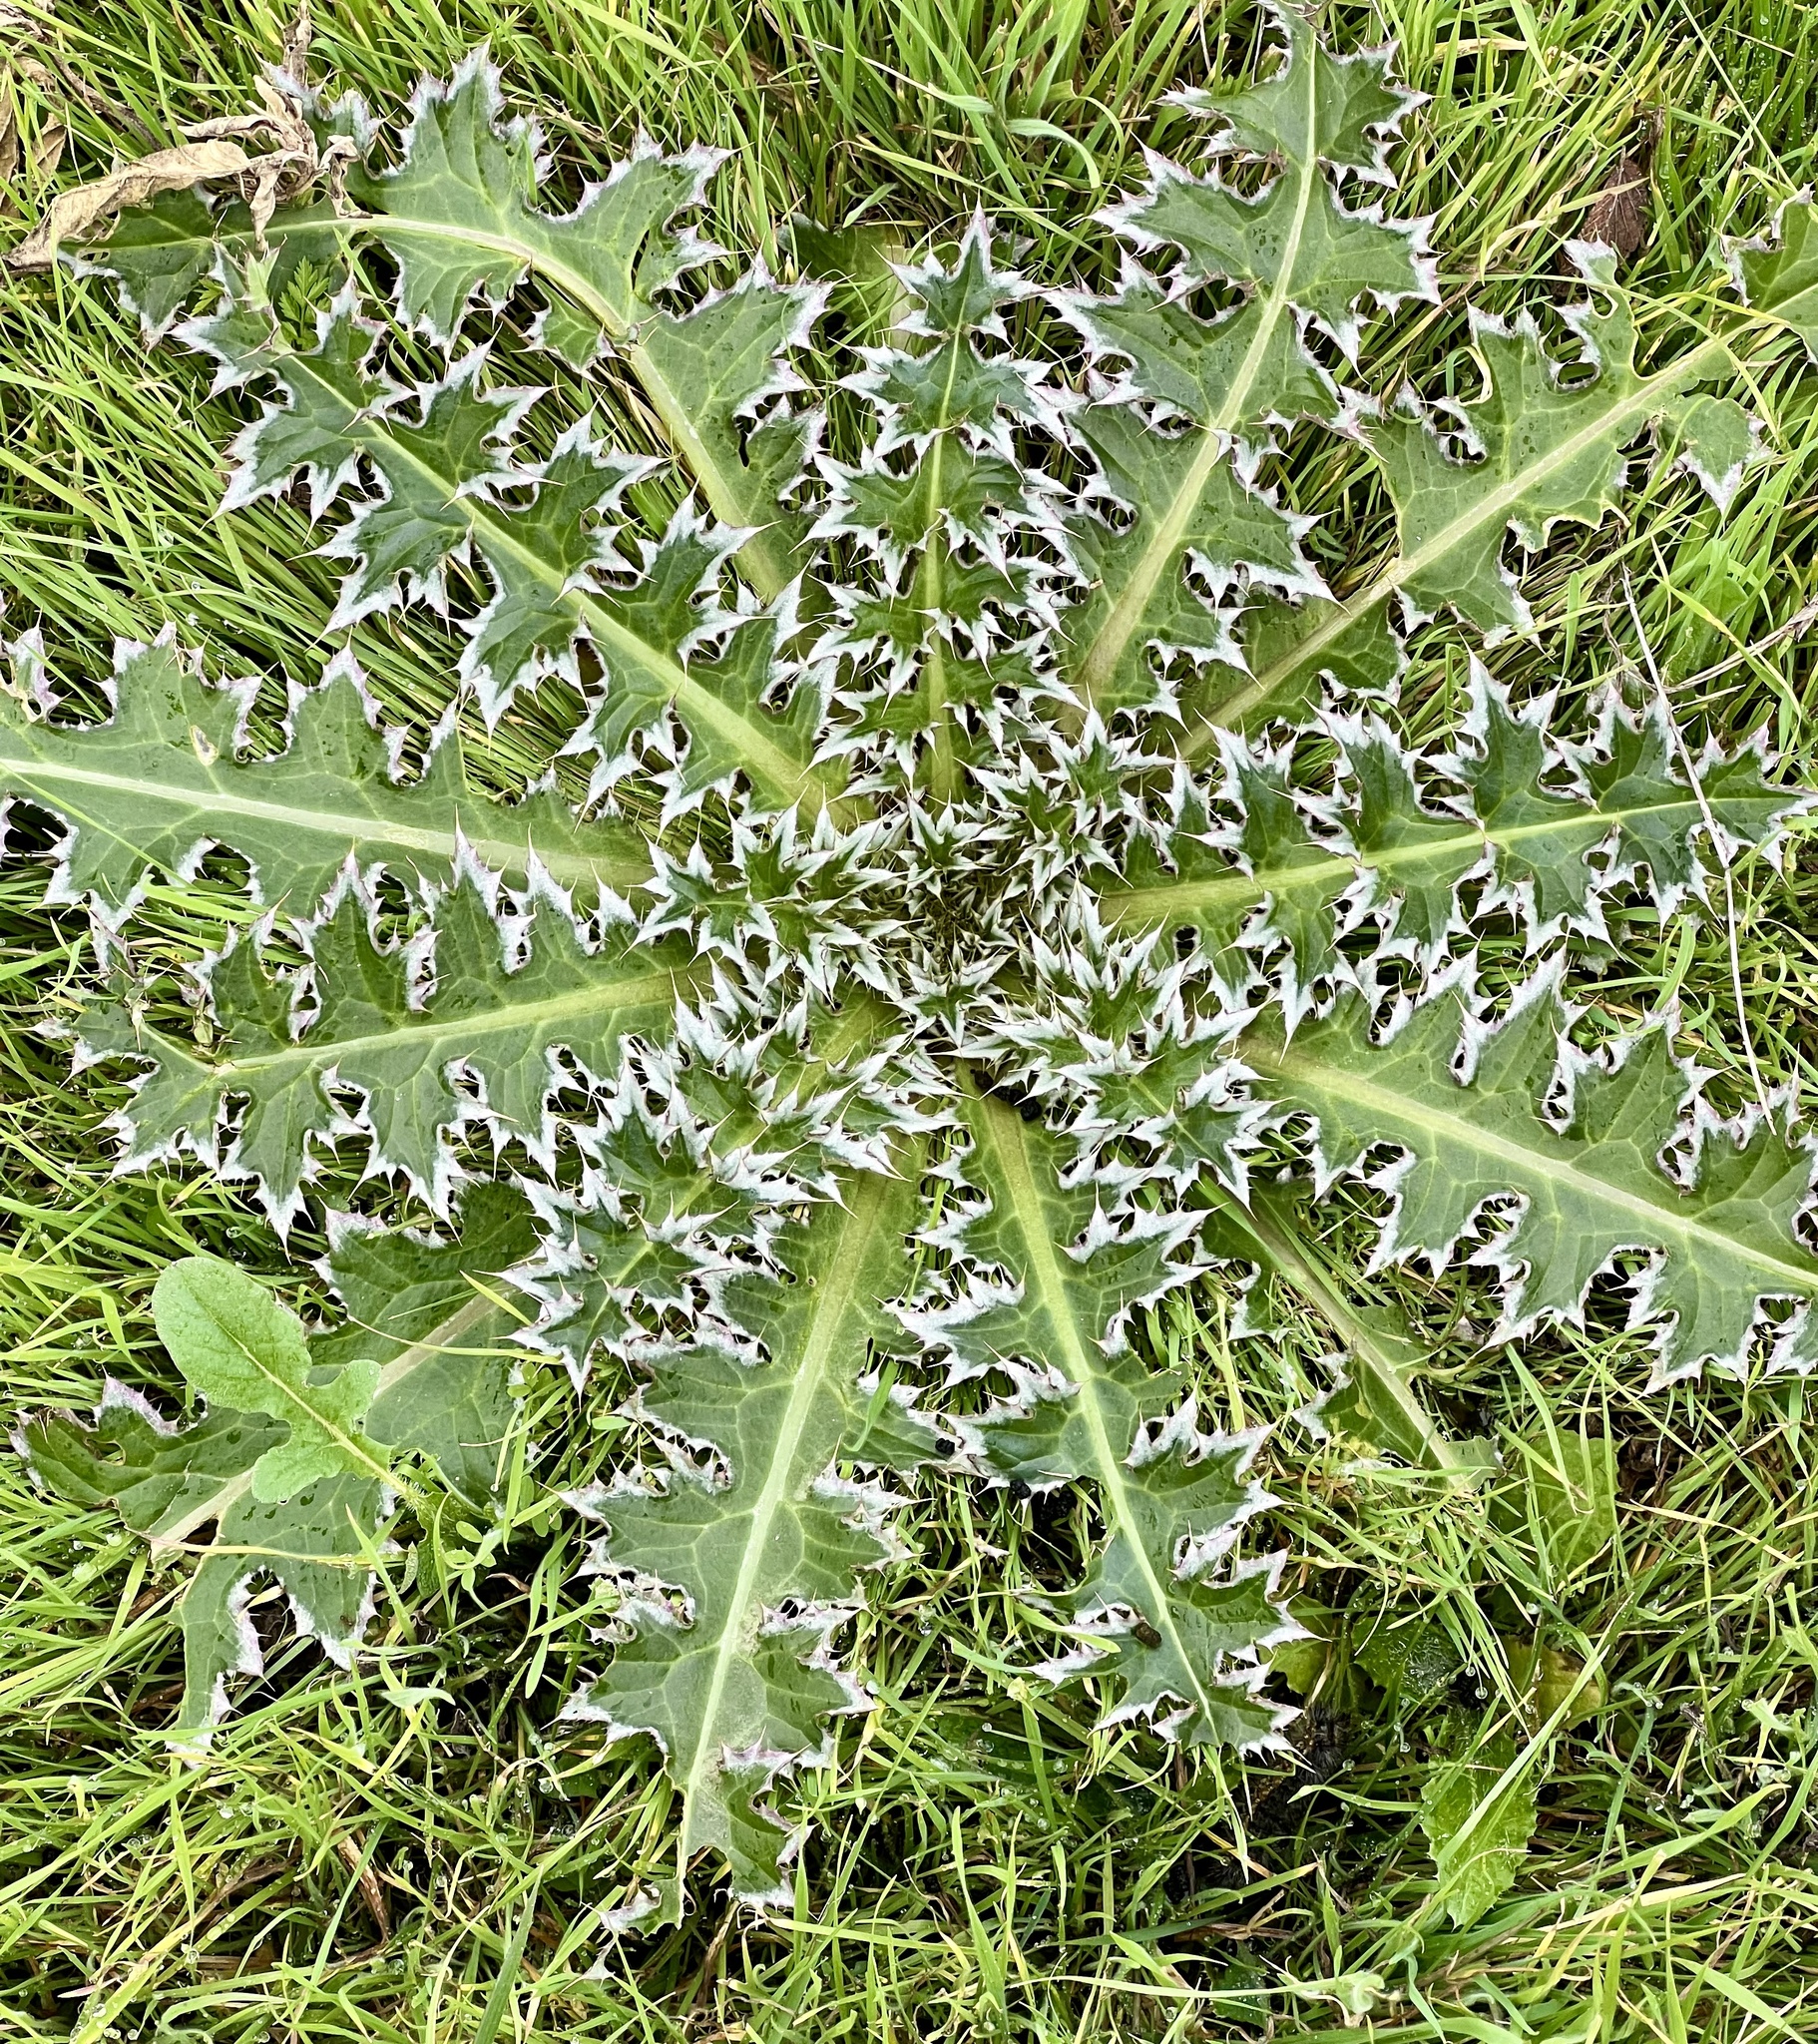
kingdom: Plantae
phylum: Tracheophyta
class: Magnoliopsida
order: Asterales
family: Asteraceae
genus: Carduus
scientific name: Carduus nutans
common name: Musk thistle
